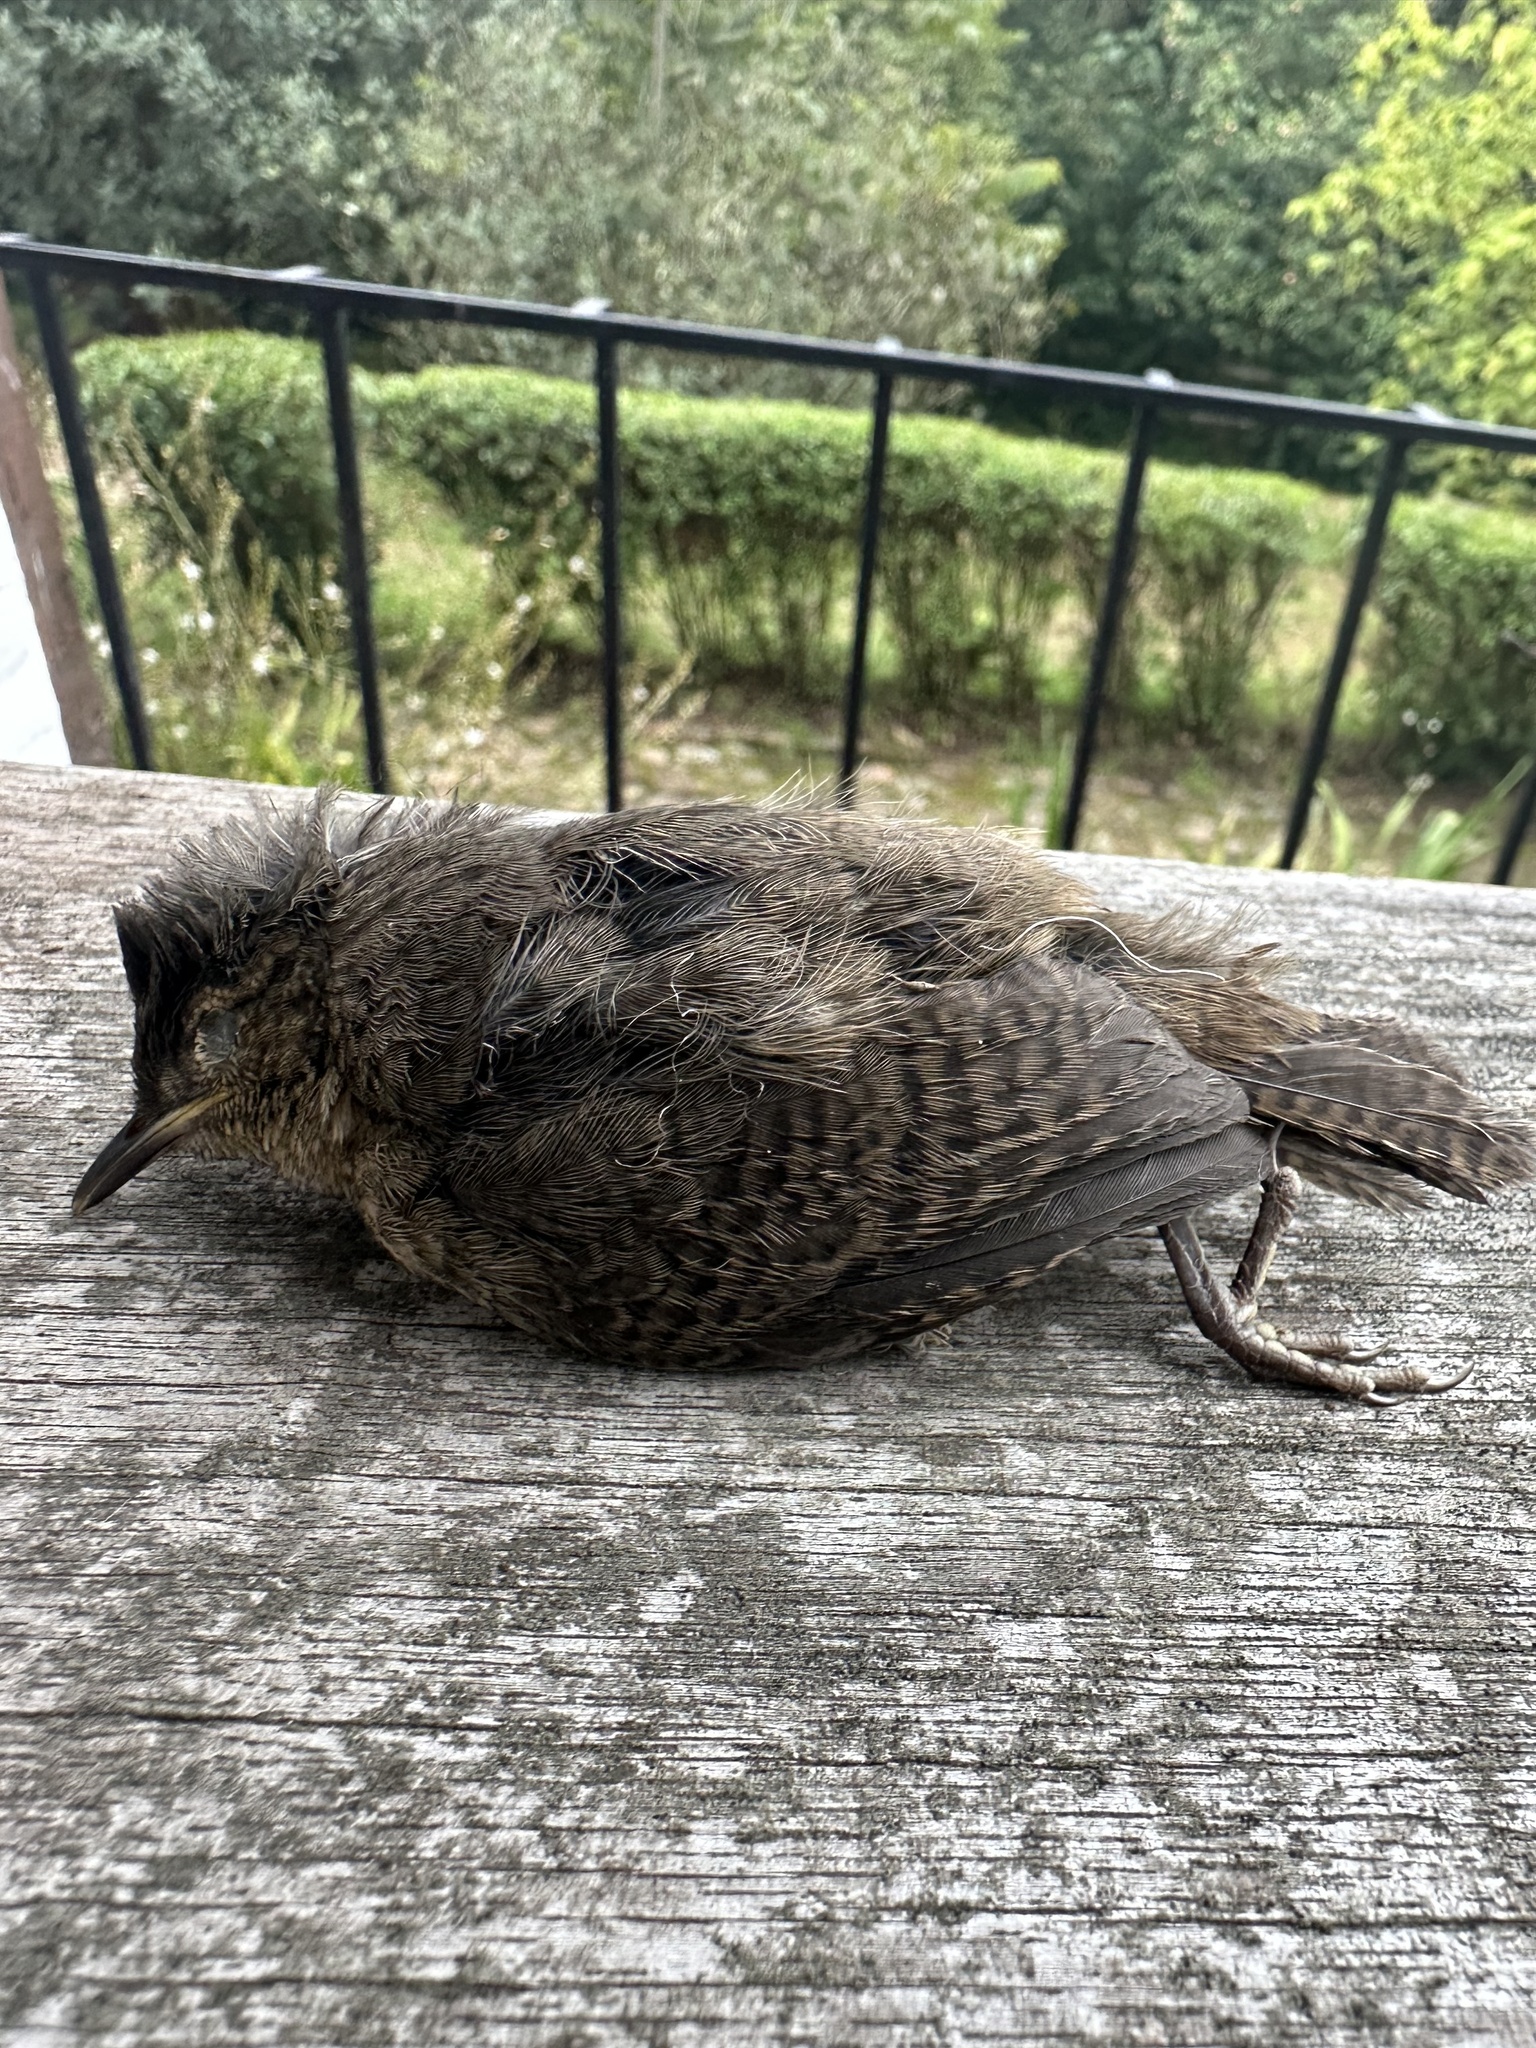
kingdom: Animalia
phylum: Chordata
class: Aves
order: Passeriformes
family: Troglodytidae
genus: Troglodytes
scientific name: Troglodytes aedon
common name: House wren
